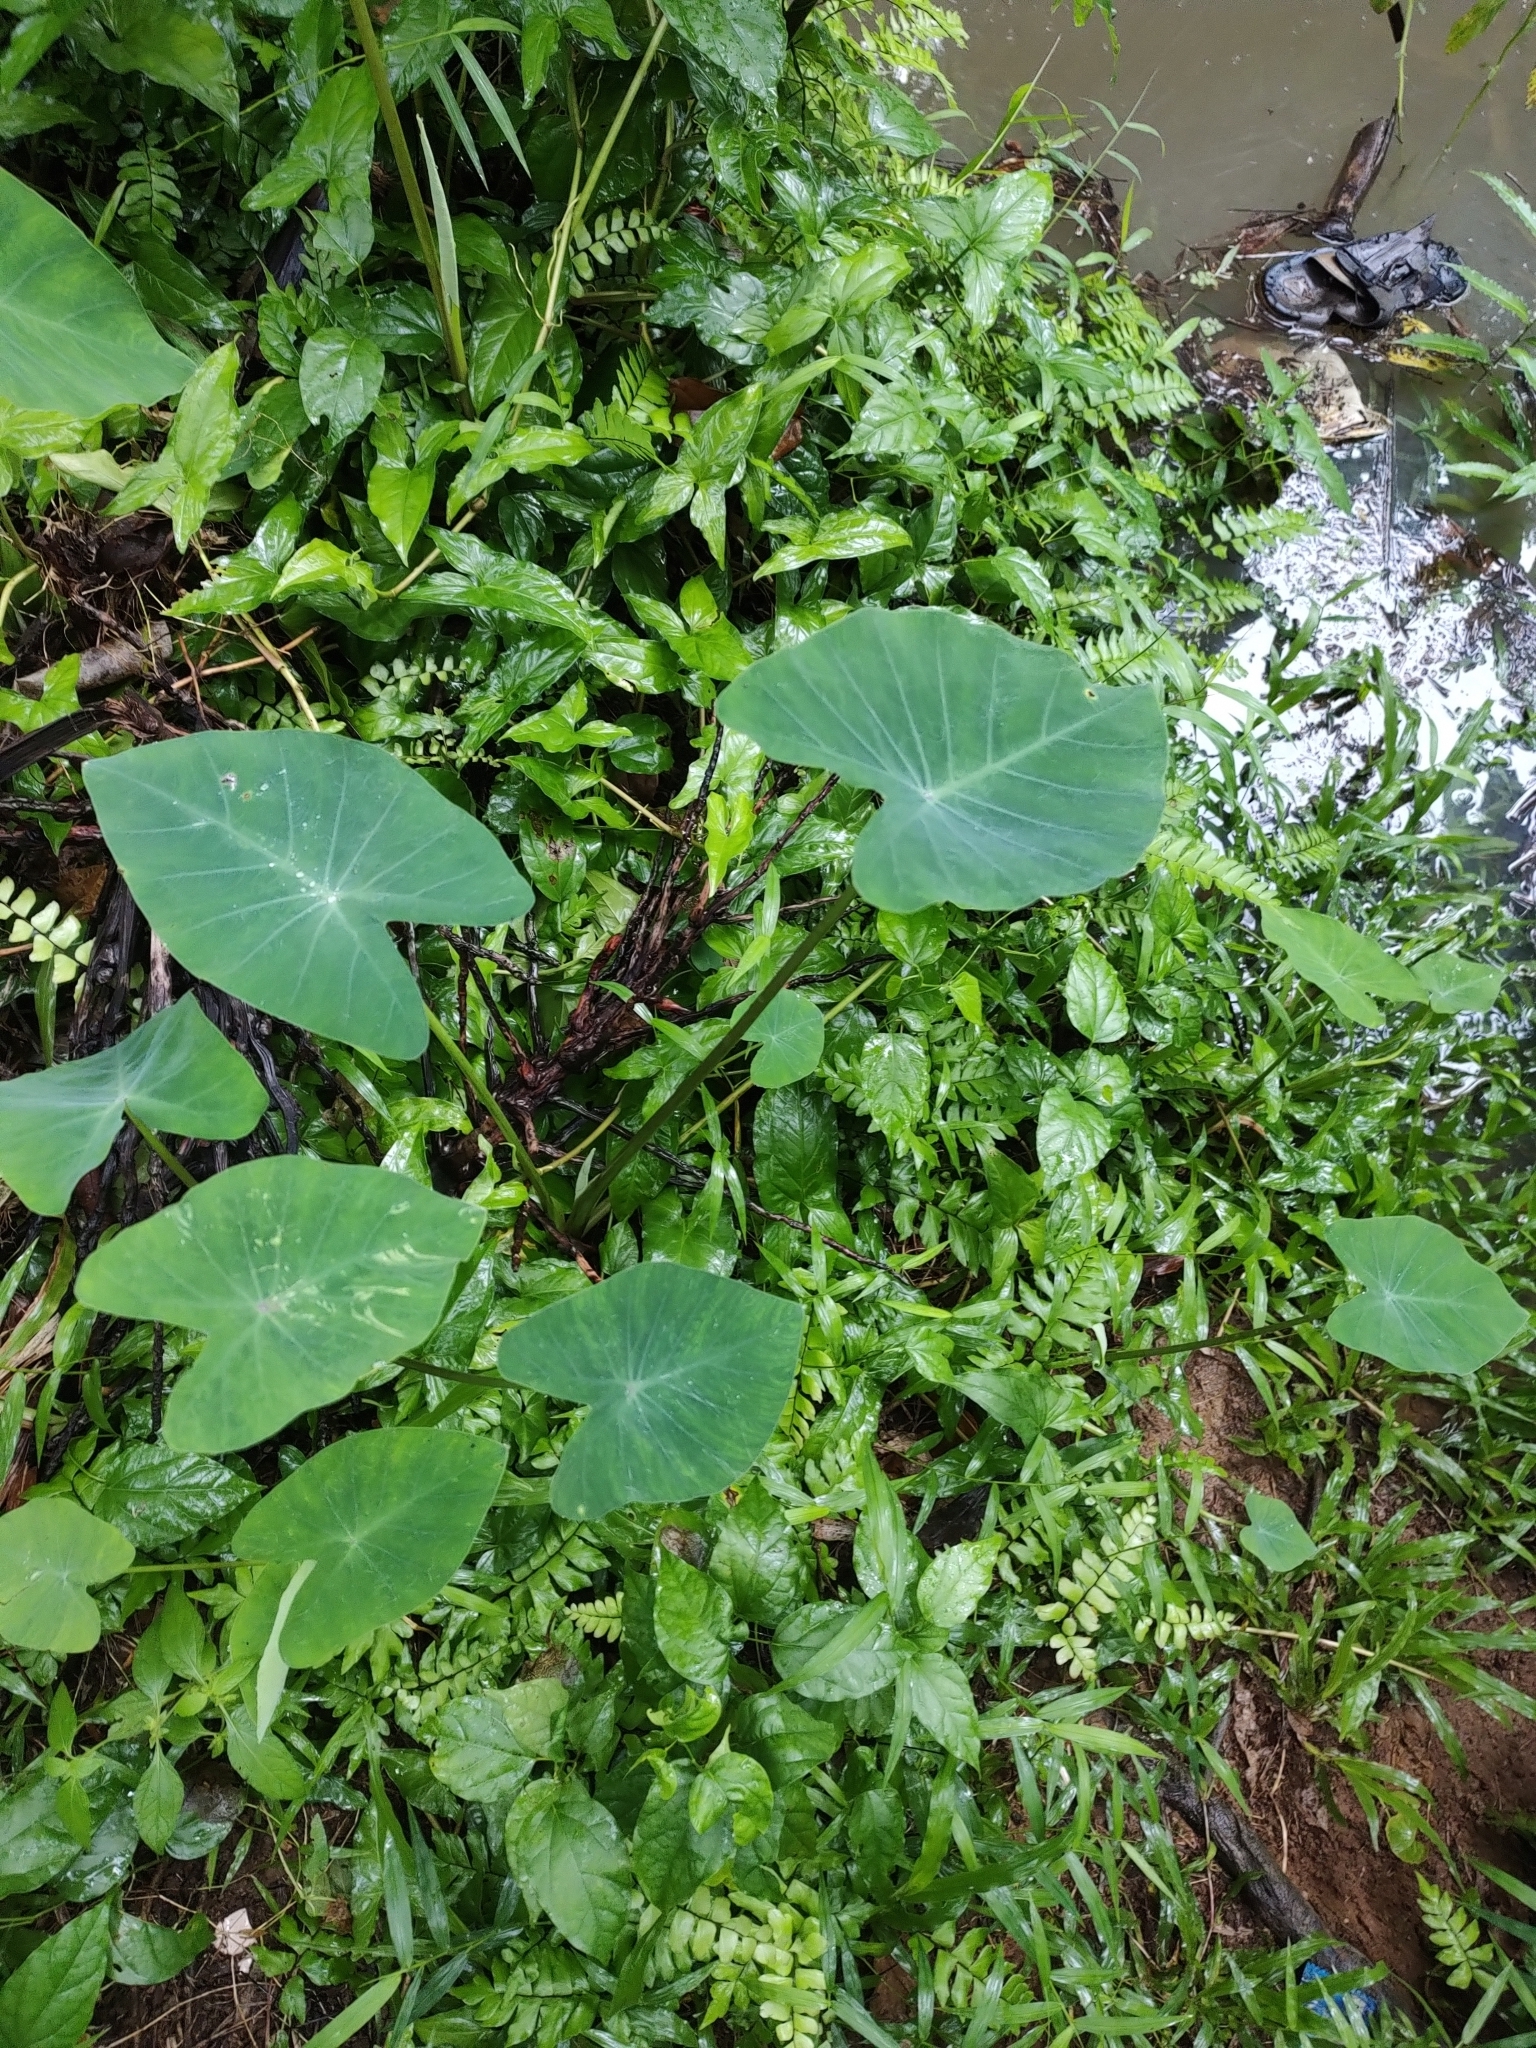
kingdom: Plantae
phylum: Tracheophyta
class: Liliopsida
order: Alismatales
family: Araceae
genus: Colocasia
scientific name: Colocasia esculenta
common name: Taro
